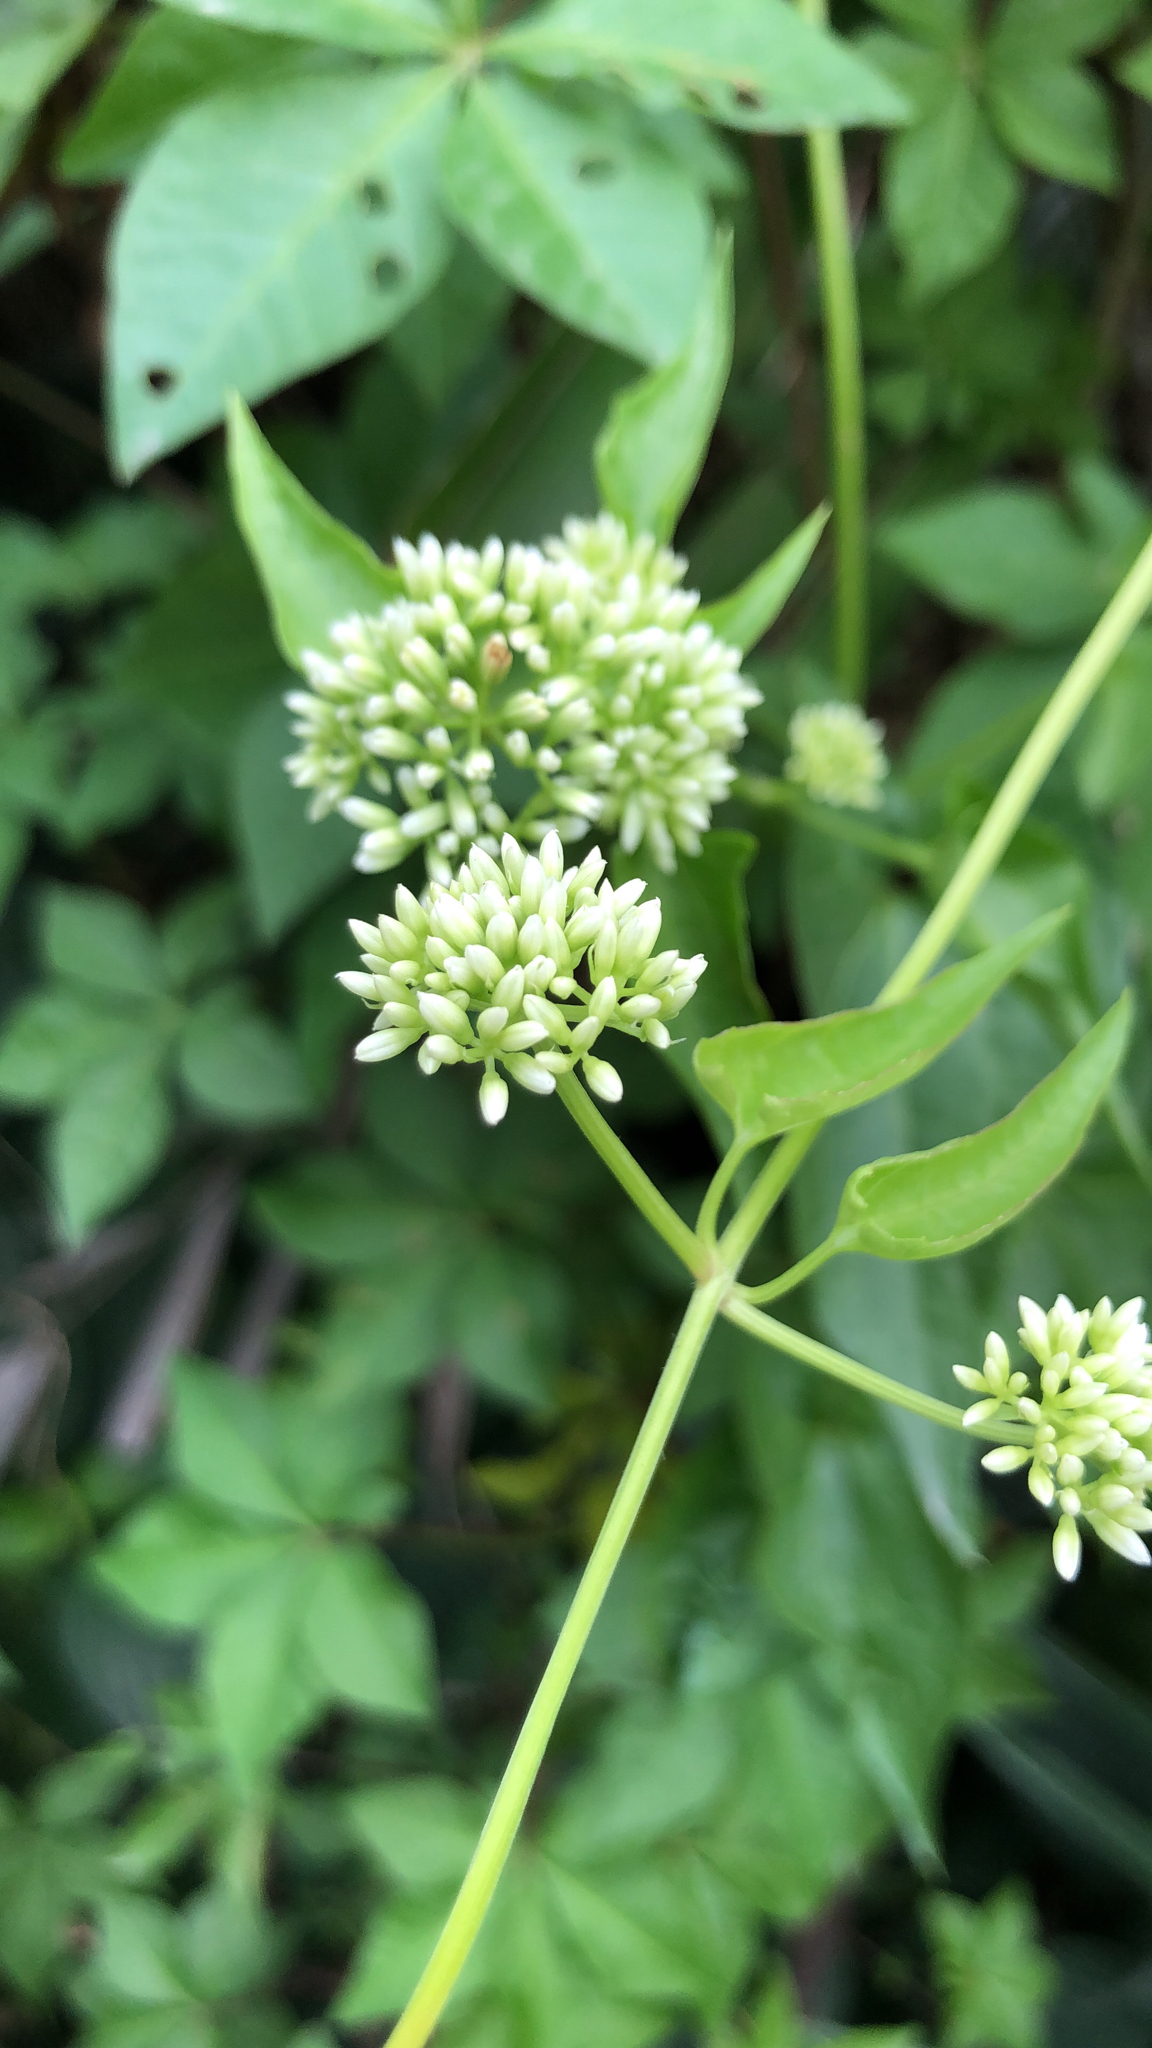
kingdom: Plantae
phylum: Tracheophyta
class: Magnoliopsida
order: Asterales
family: Asteraceae
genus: Mikania
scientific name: Mikania micrantha
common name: Mile-a-minute
